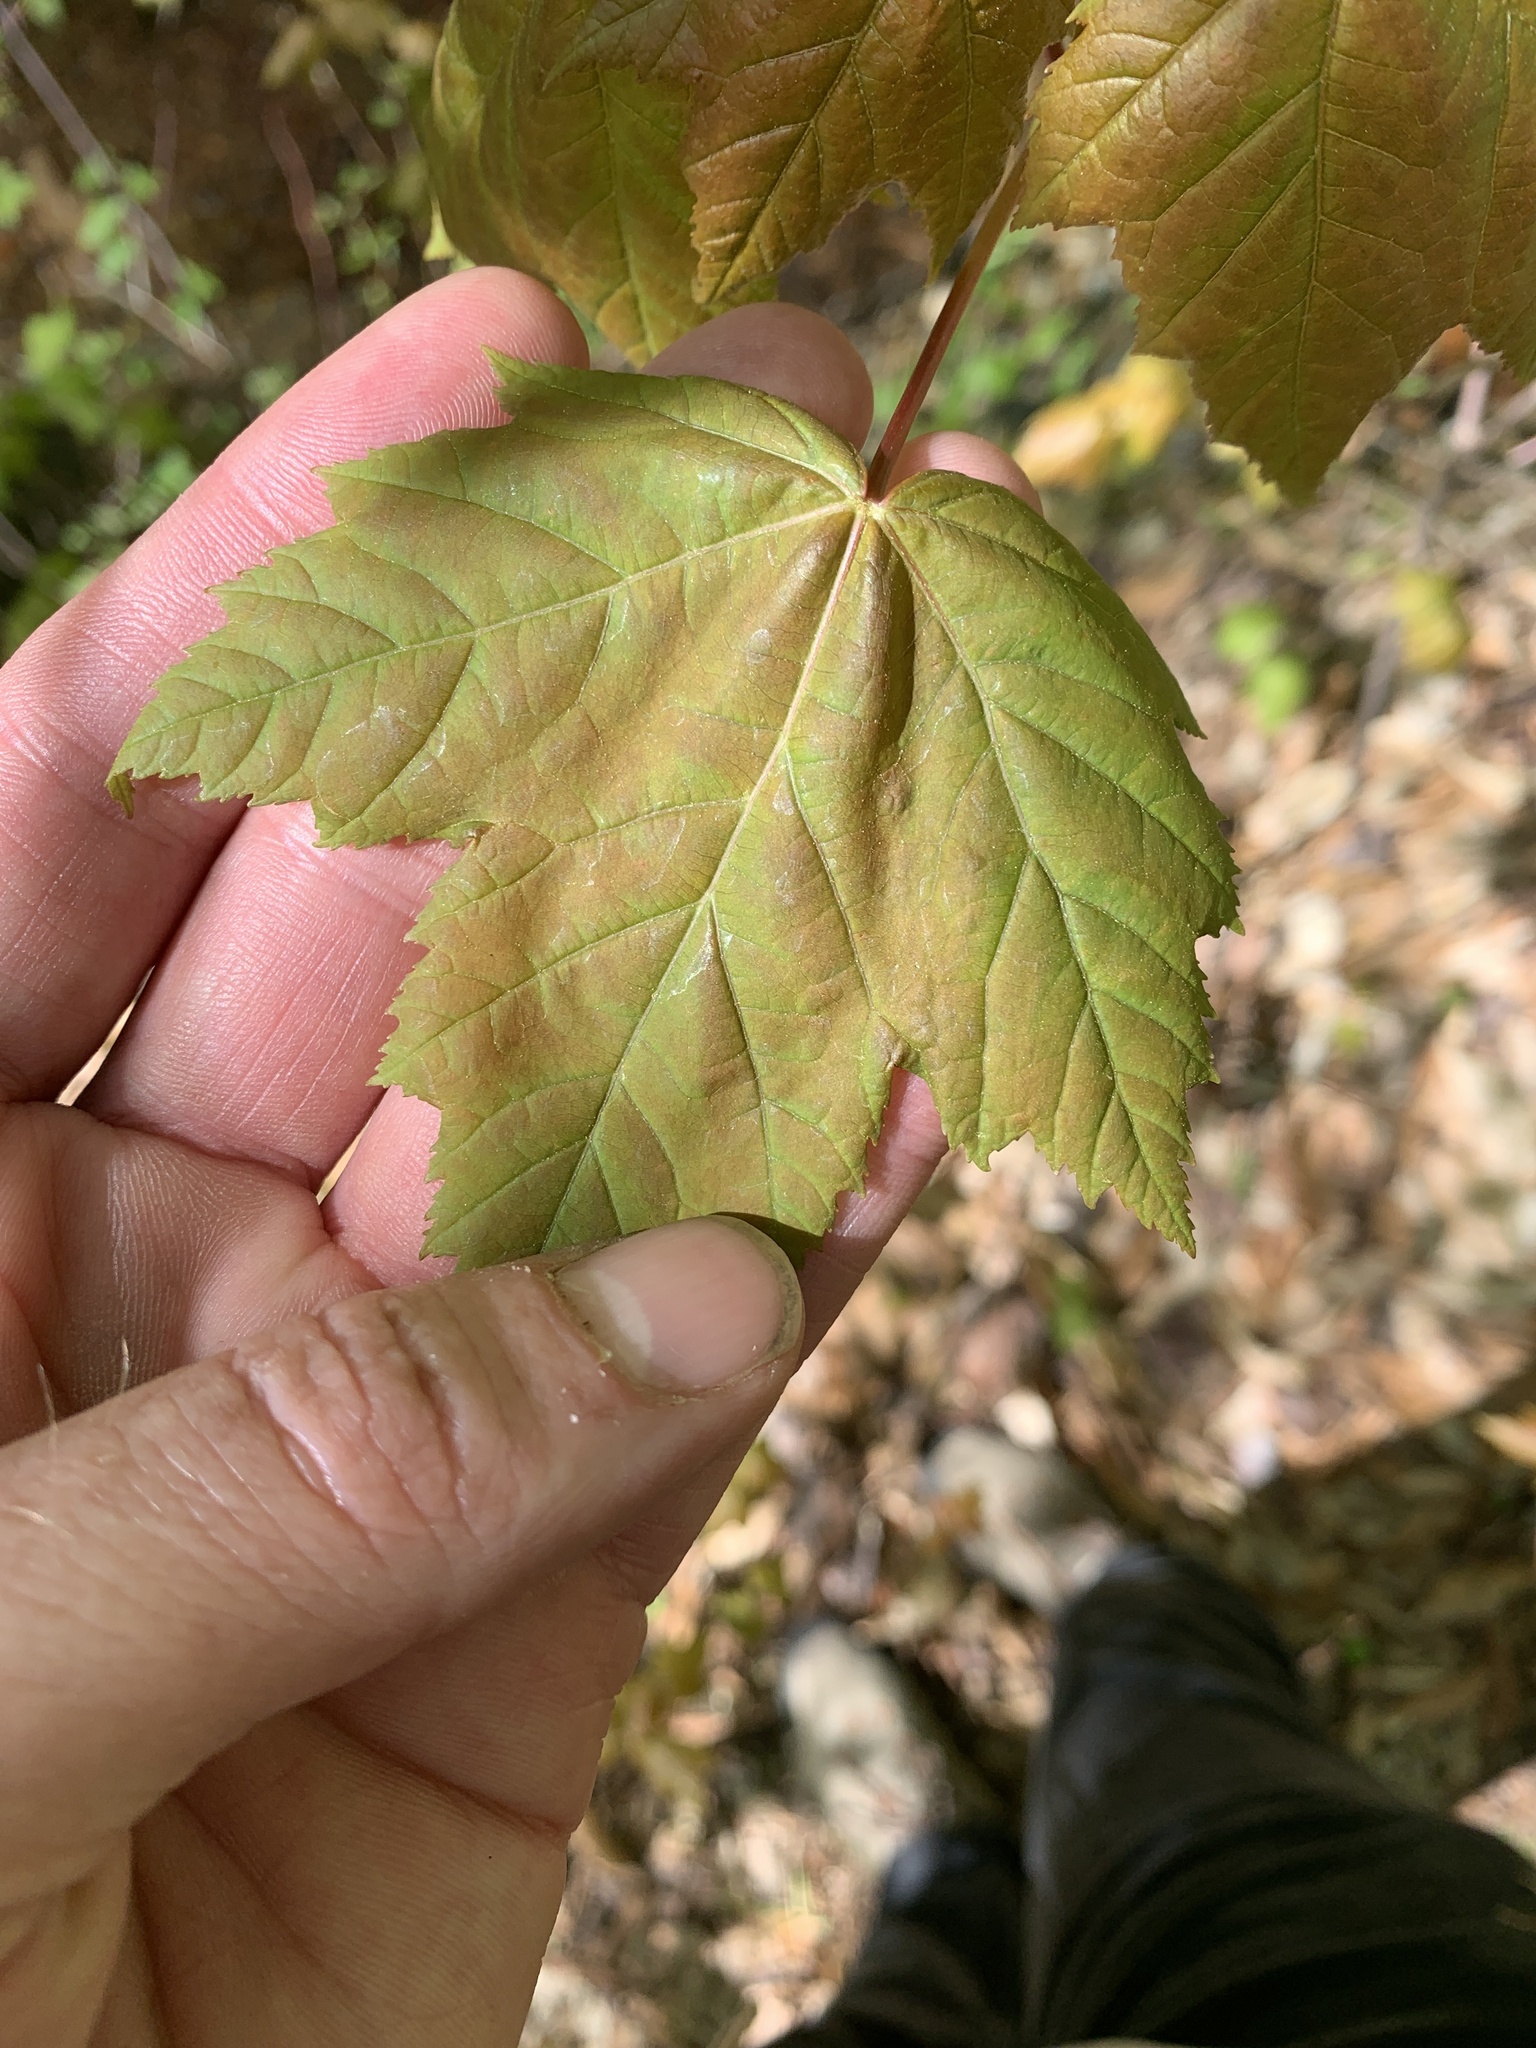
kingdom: Plantae
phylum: Tracheophyta
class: Magnoliopsida
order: Sapindales
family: Sapindaceae
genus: Acer
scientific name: Acer rubrum
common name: Red maple
